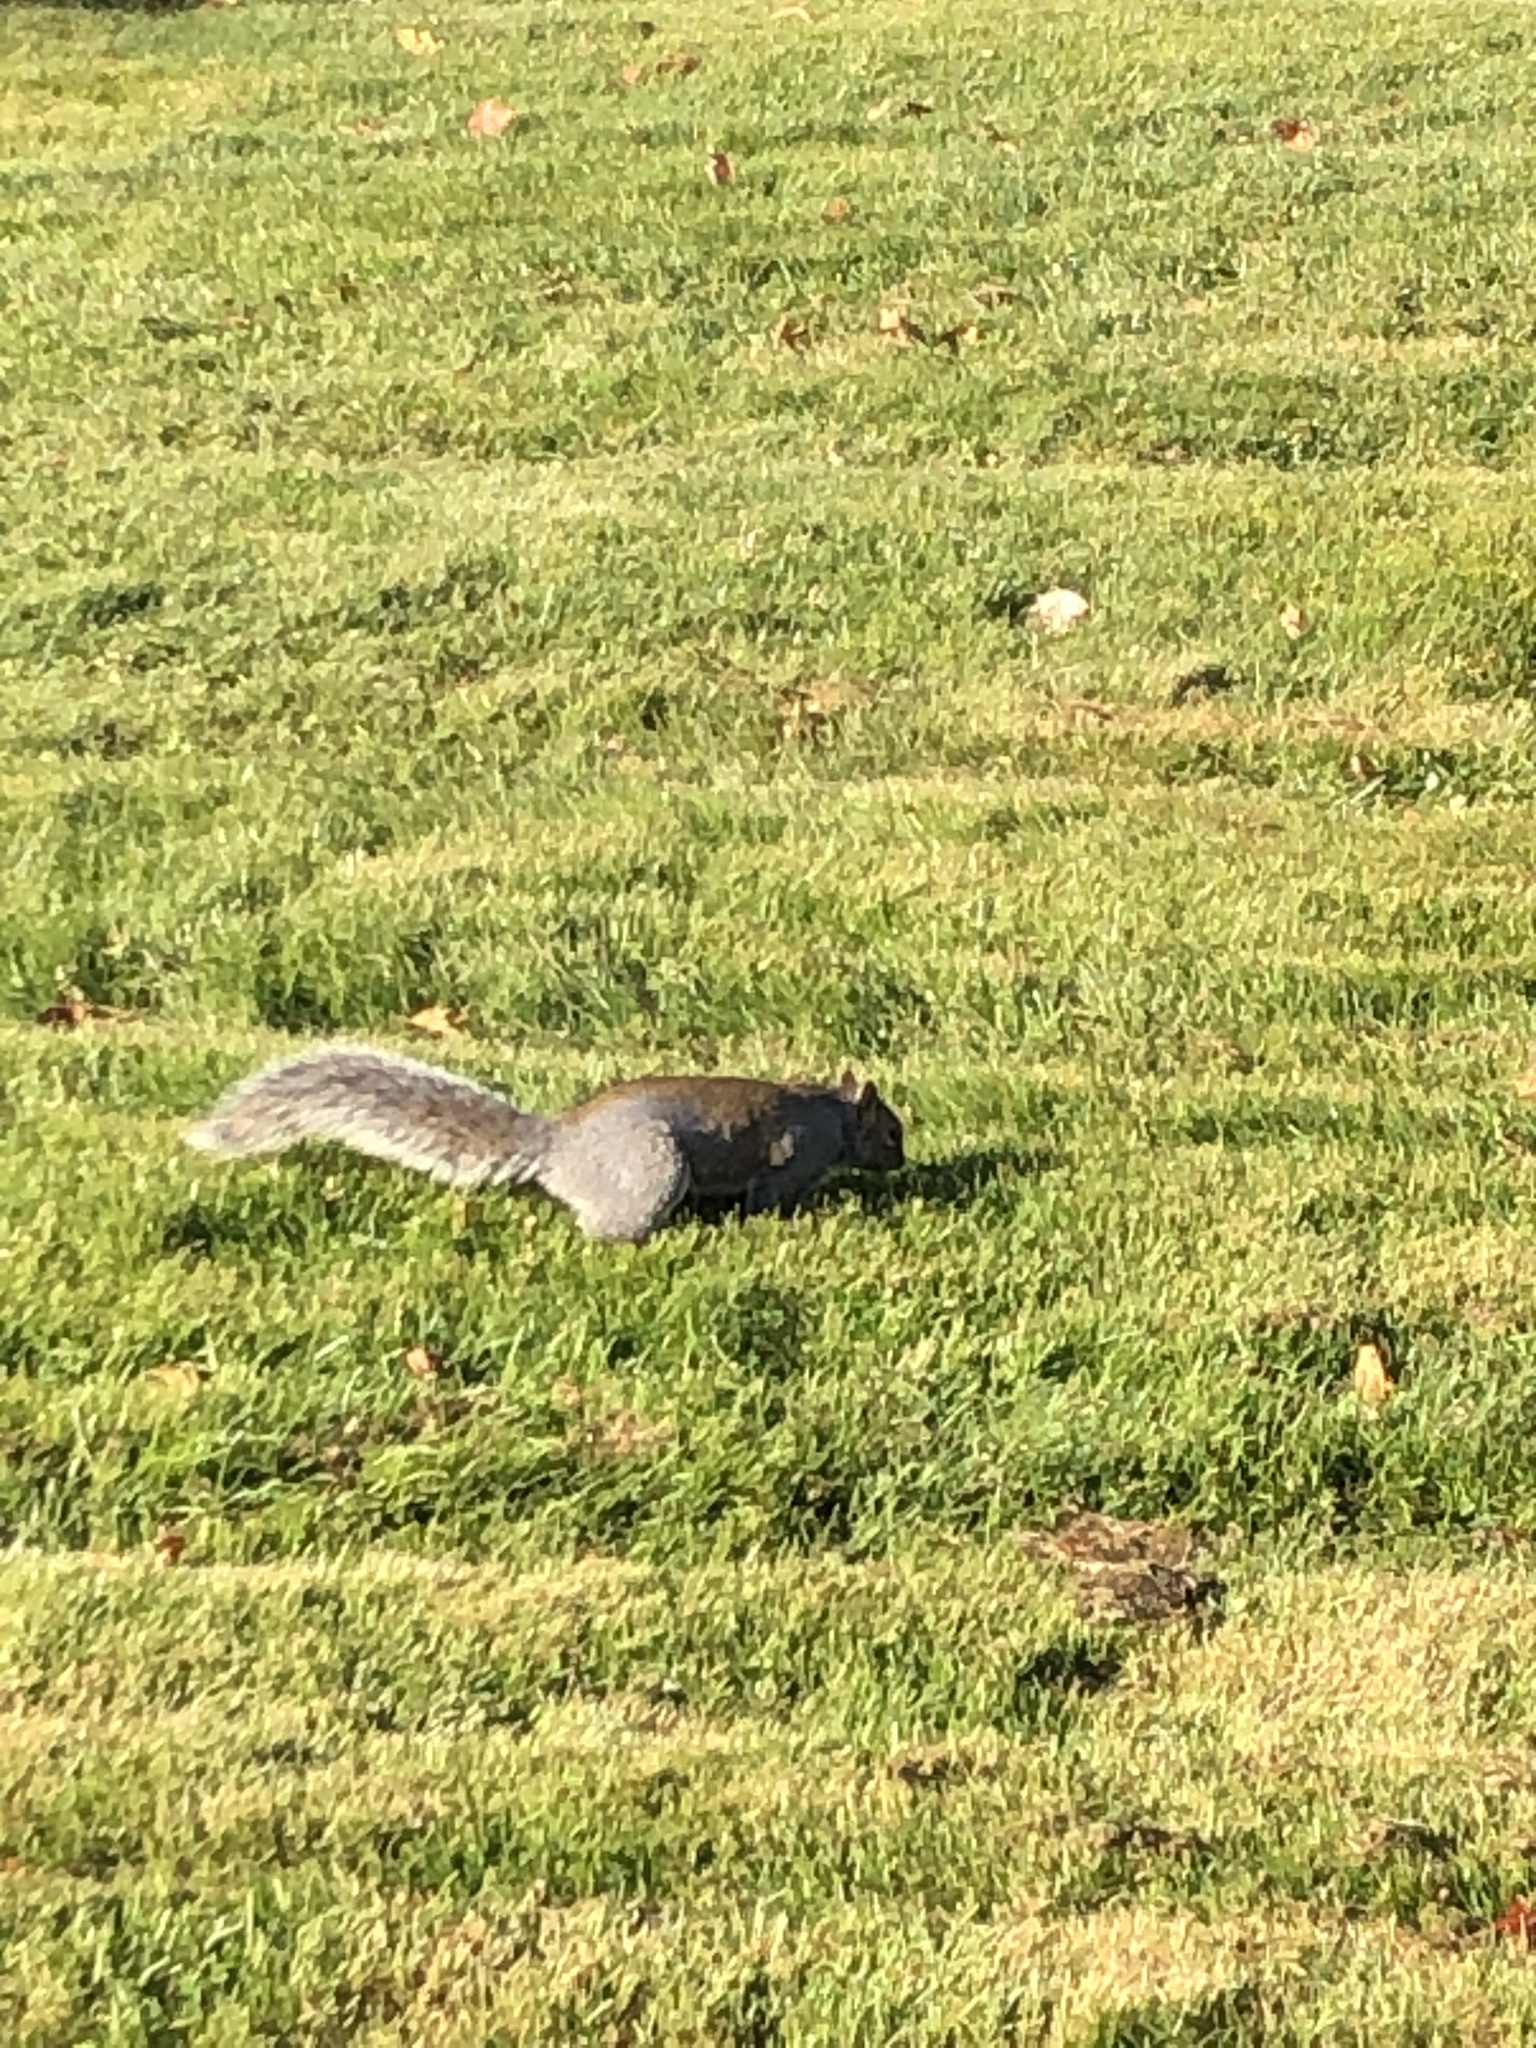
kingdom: Animalia
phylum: Chordata
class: Mammalia
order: Rodentia
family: Sciuridae
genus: Sciurus
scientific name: Sciurus carolinensis
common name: Eastern gray squirrel
